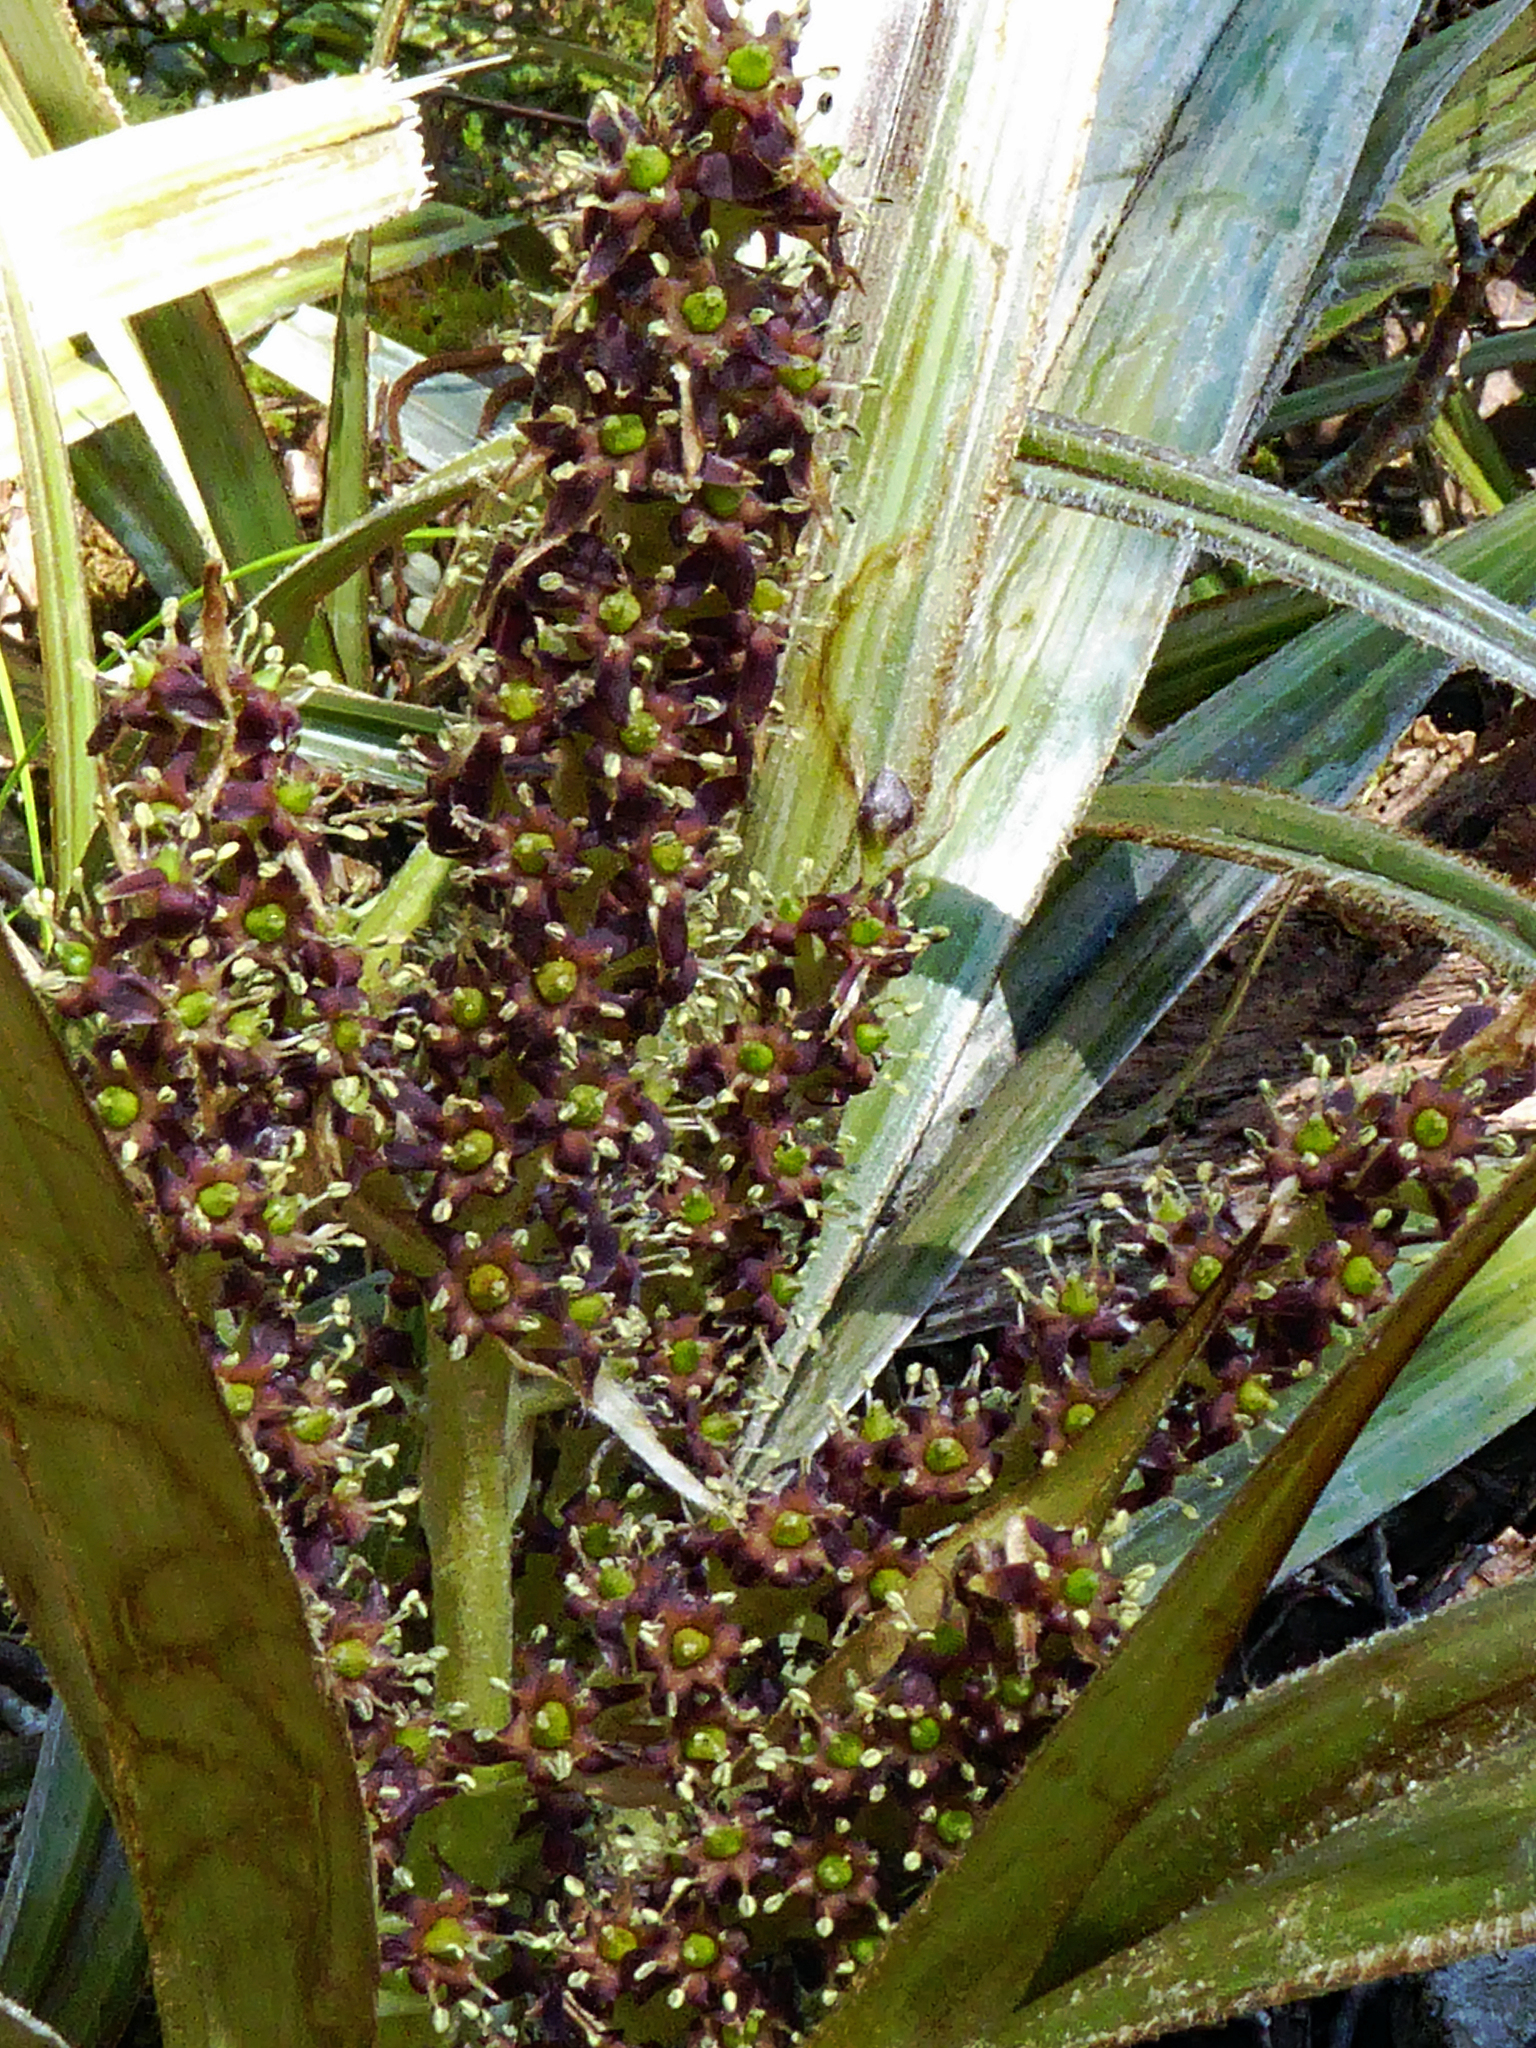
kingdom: Plantae
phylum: Tracheophyta
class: Liliopsida
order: Asparagales
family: Asteliaceae
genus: Astelia
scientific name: Astelia nervosa
